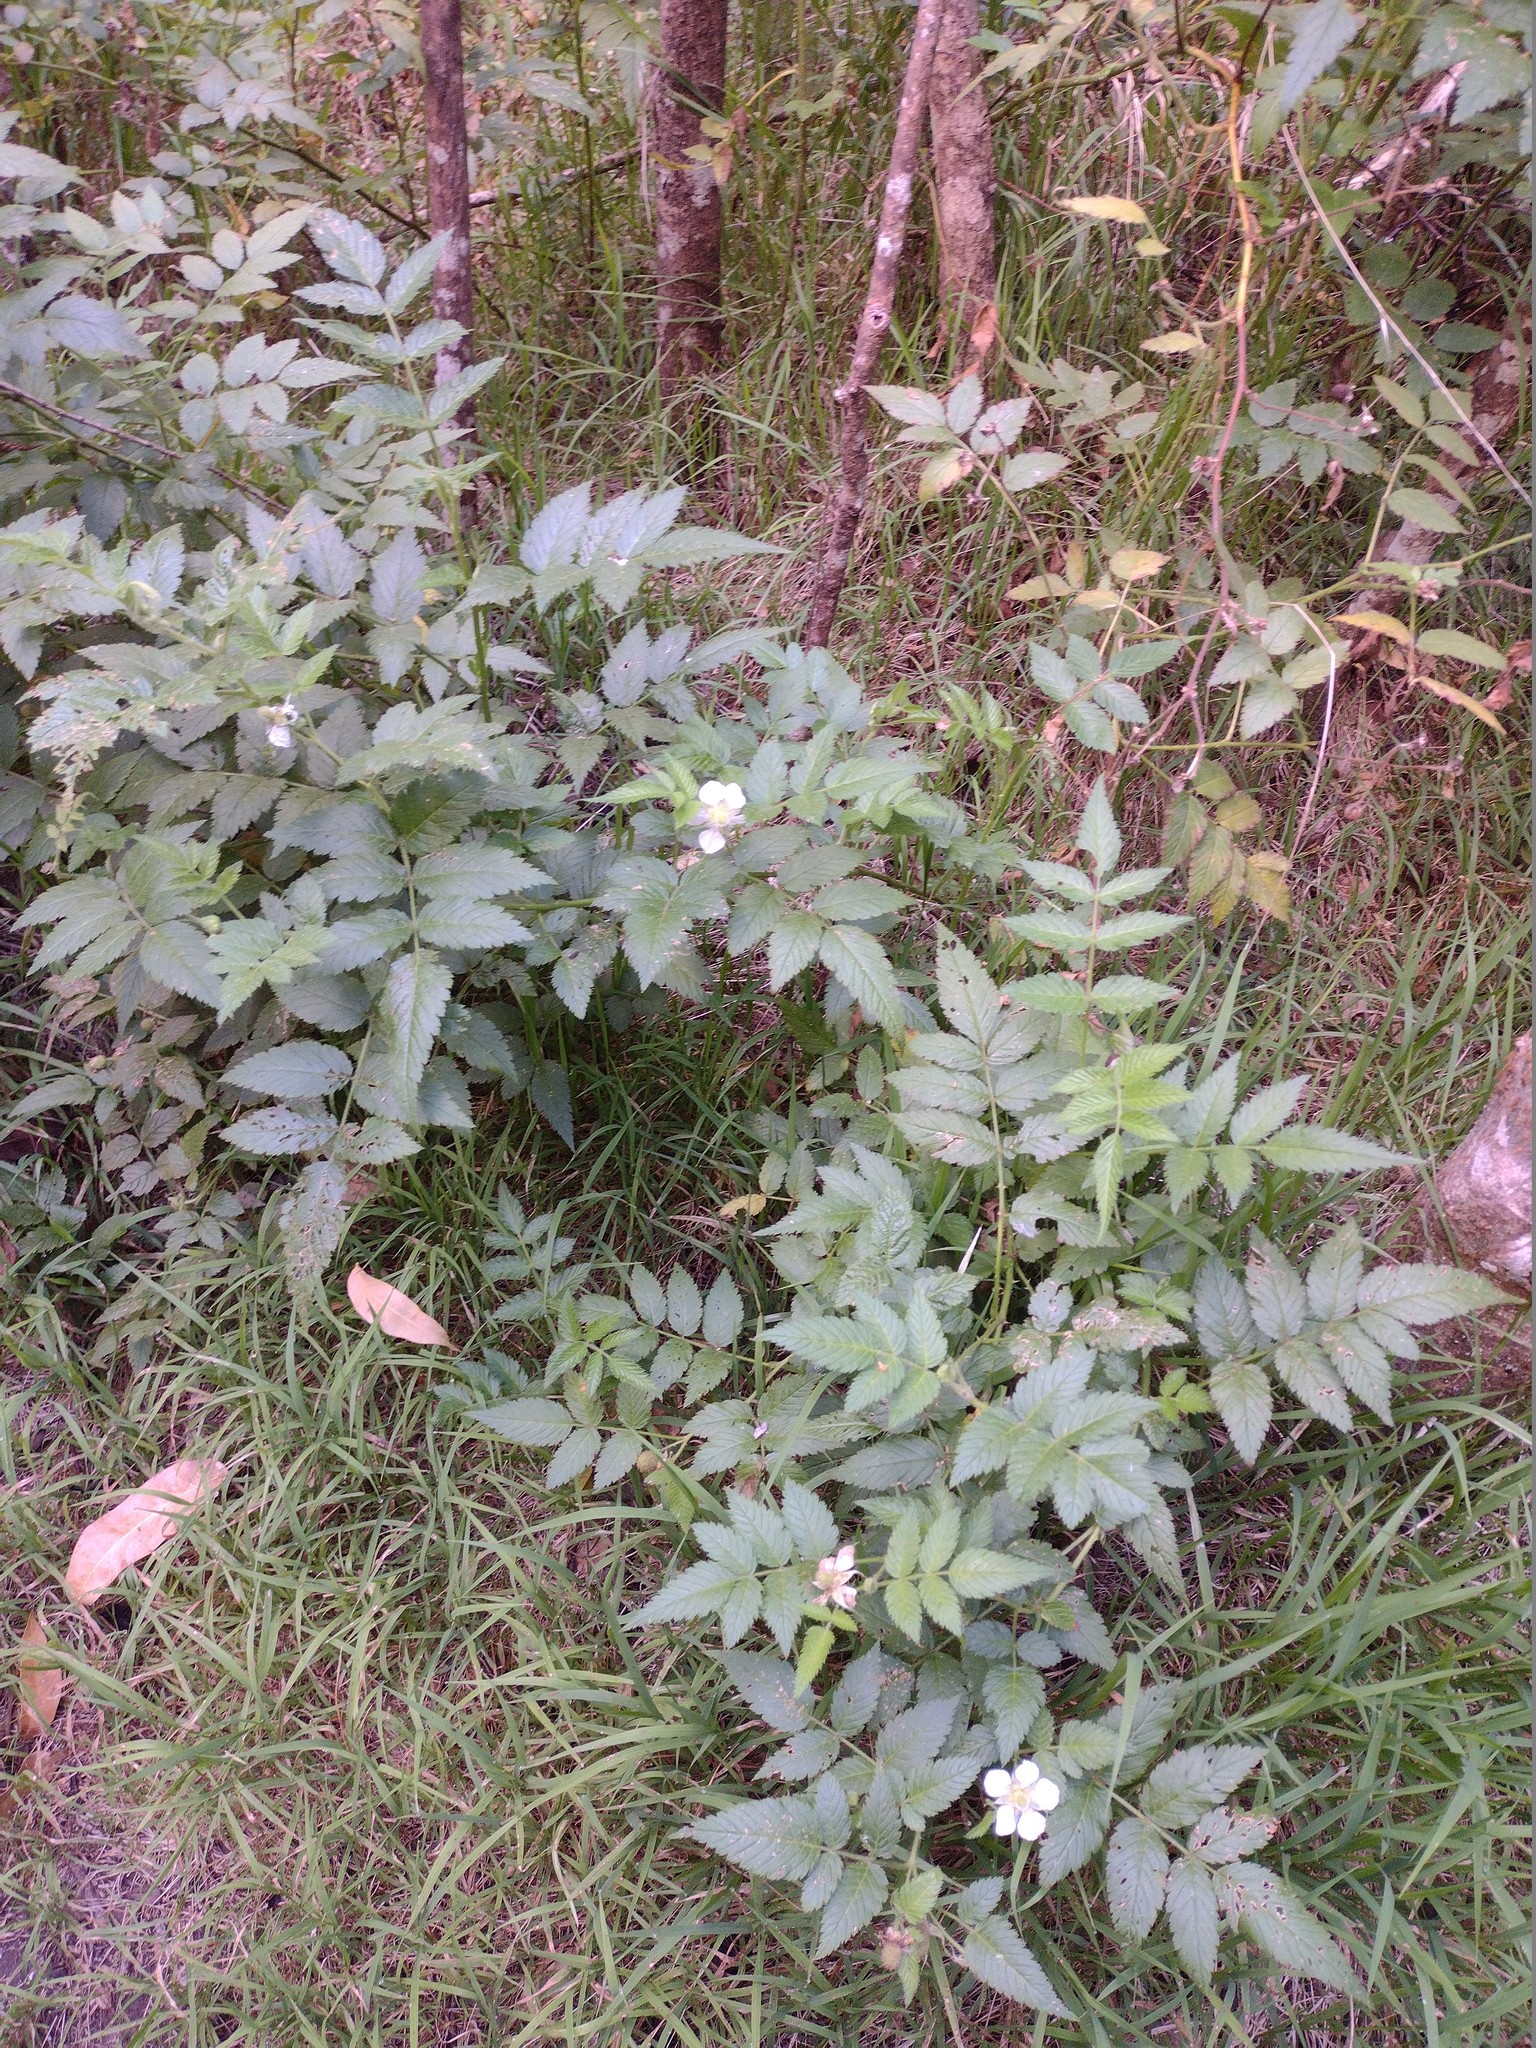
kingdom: Plantae
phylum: Tracheophyta
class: Magnoliopsida
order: Rosales
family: Rosaceae
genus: Rubus
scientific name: Rubus rosifolius
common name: Roseleaf raspberry
